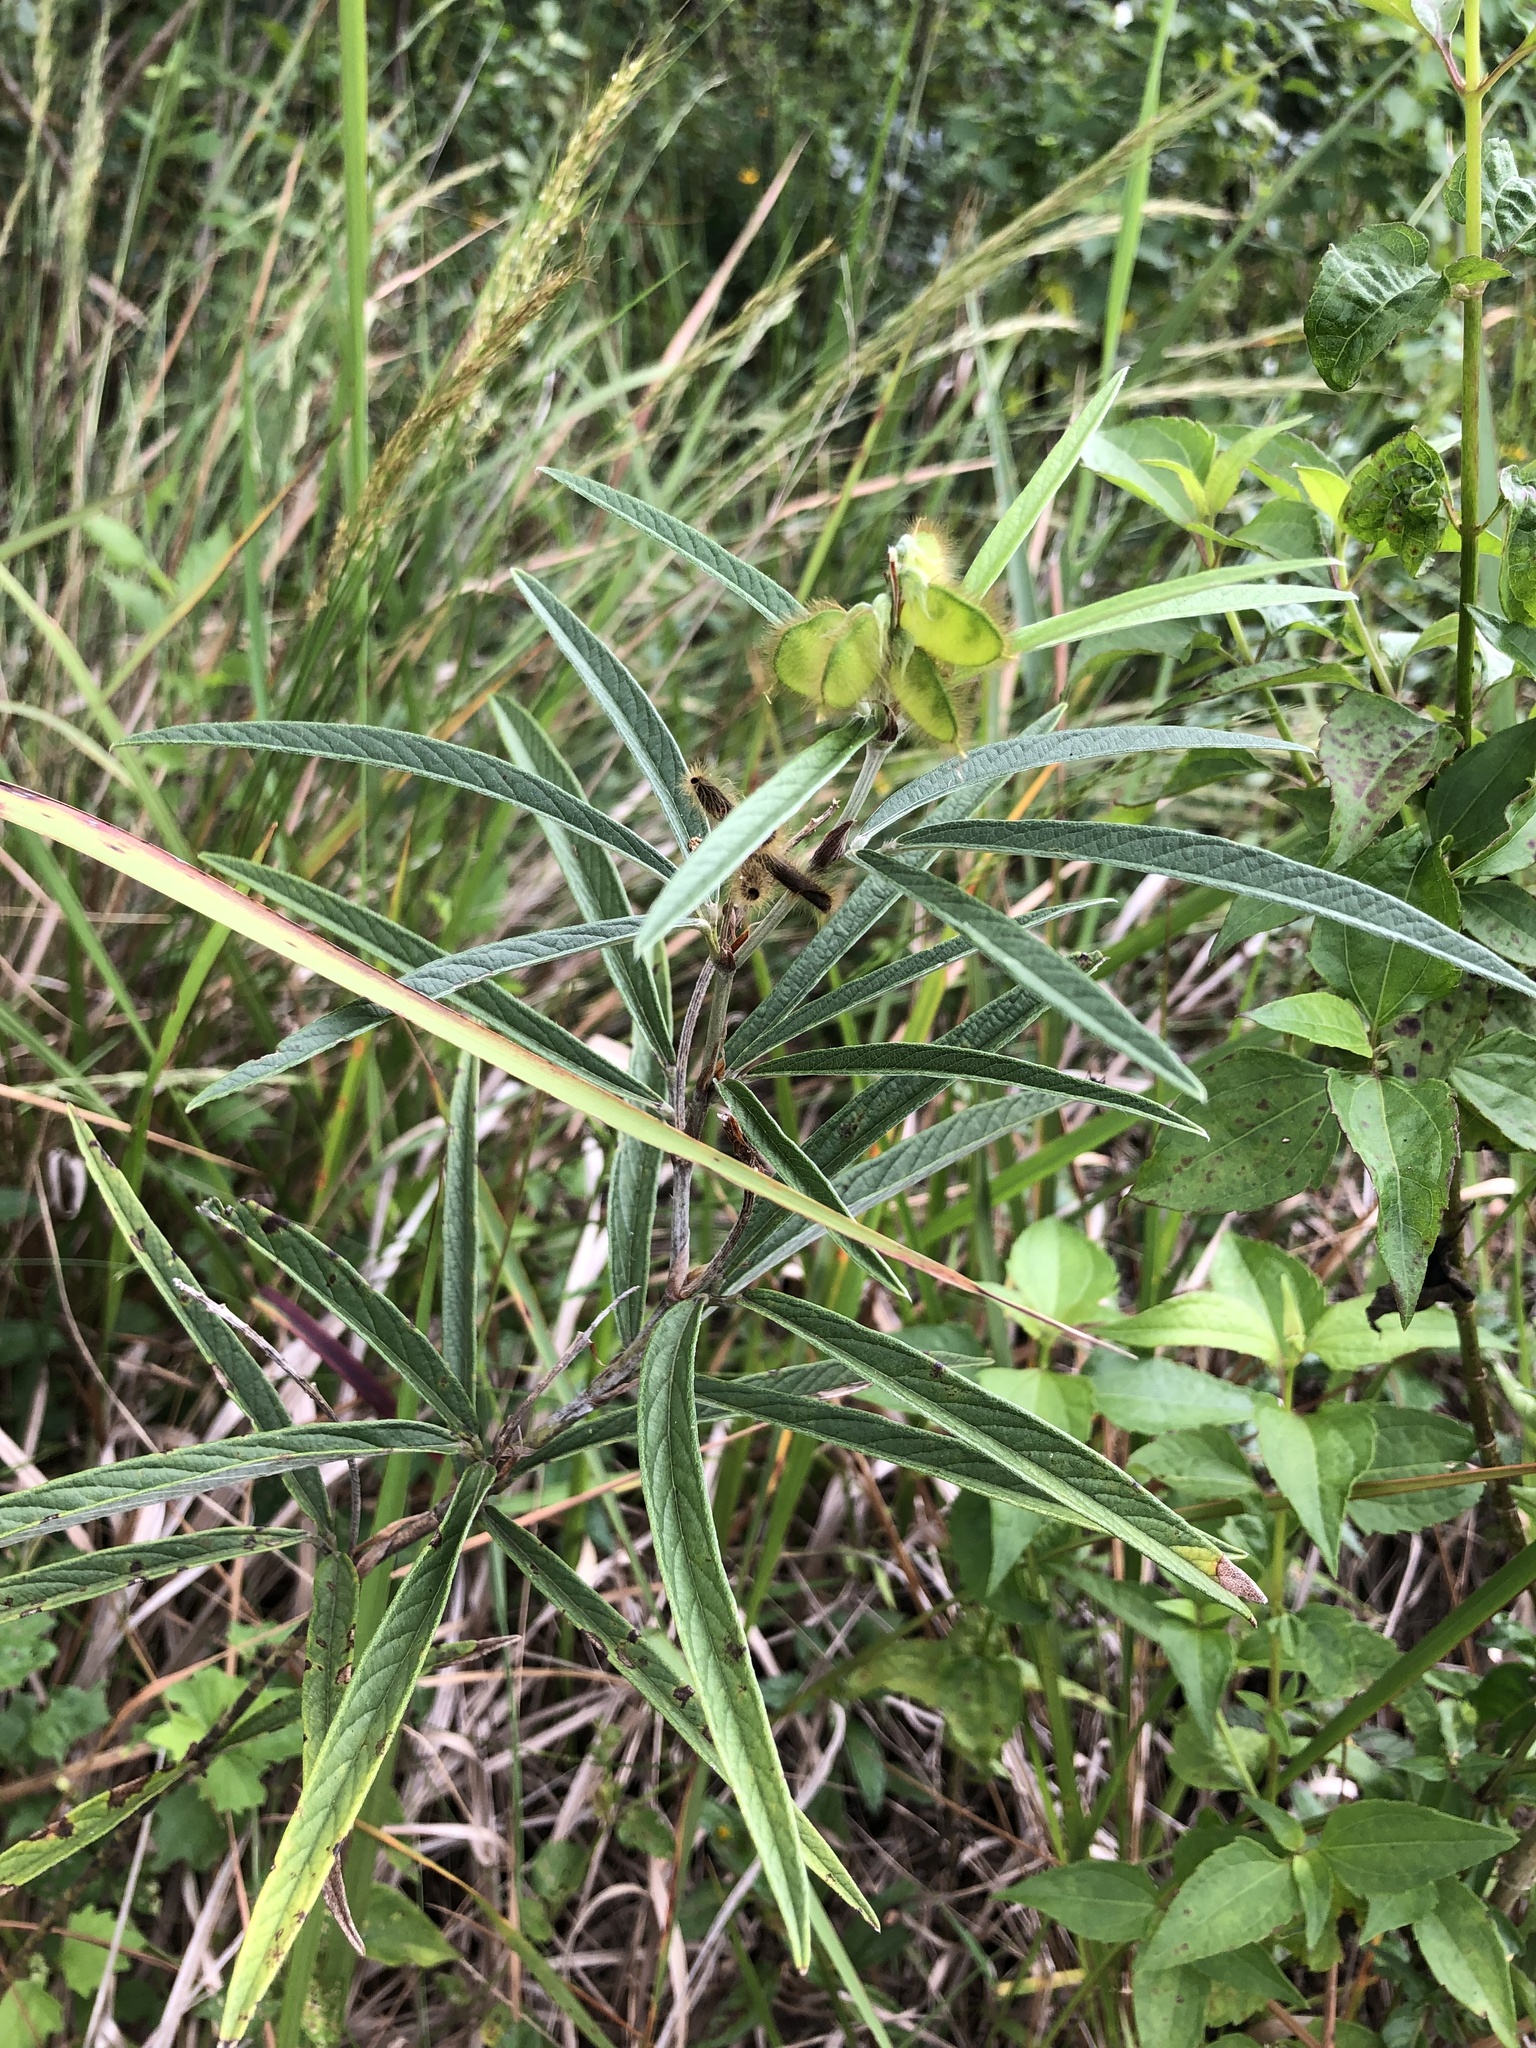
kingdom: Plantae
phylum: Tracheophyta
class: Magnoliopsida
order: Fabales
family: Fabaceae
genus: Eriosema
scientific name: Eriosema salignum
